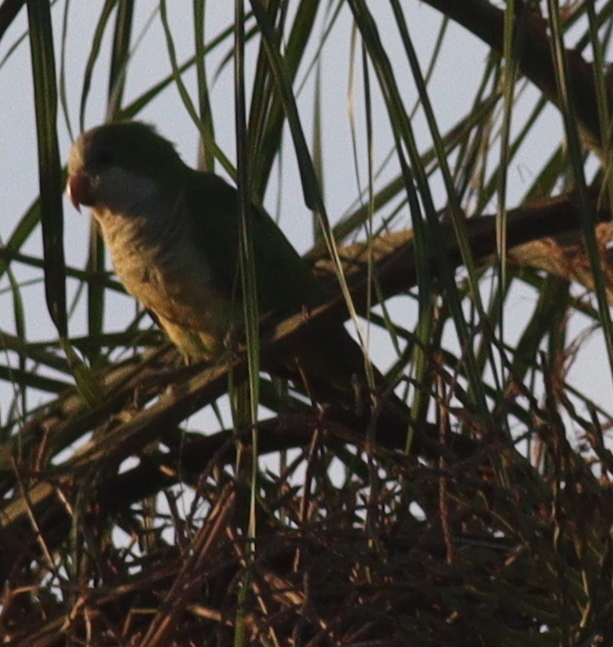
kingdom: Animalia
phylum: Chordata
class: Aves
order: Psittaciformes
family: Psittacidae
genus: Myiopsitta
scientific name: Myiopsitta monachus
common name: Monk parakeet
